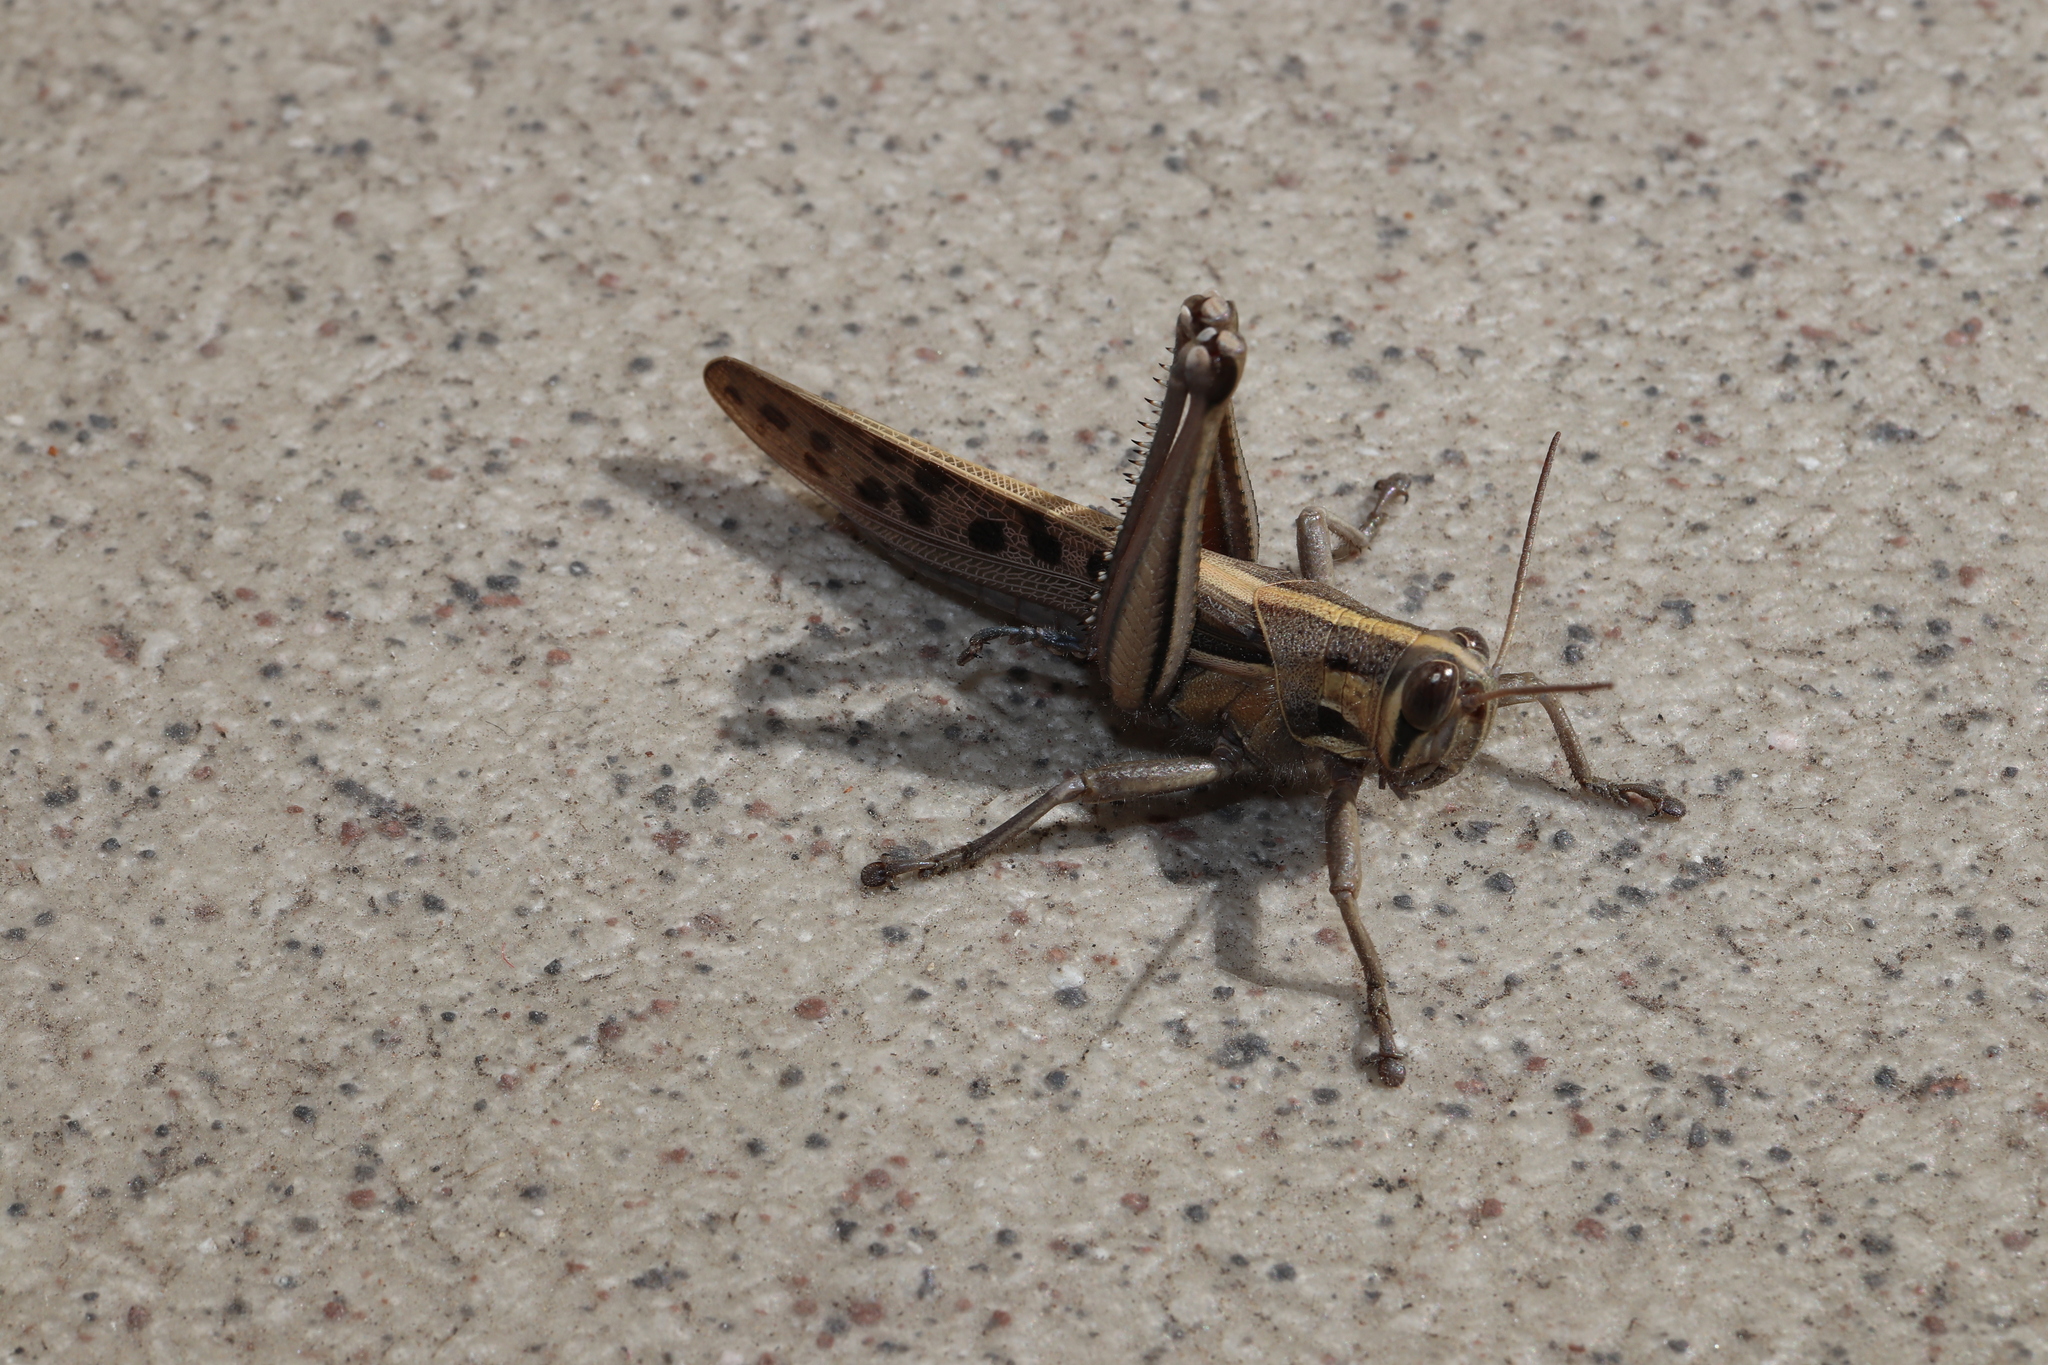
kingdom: Animalia
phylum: Arthropoda
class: Insecta
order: Orthoptera
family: Acrididae
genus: Patanga
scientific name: Patanga japonica
